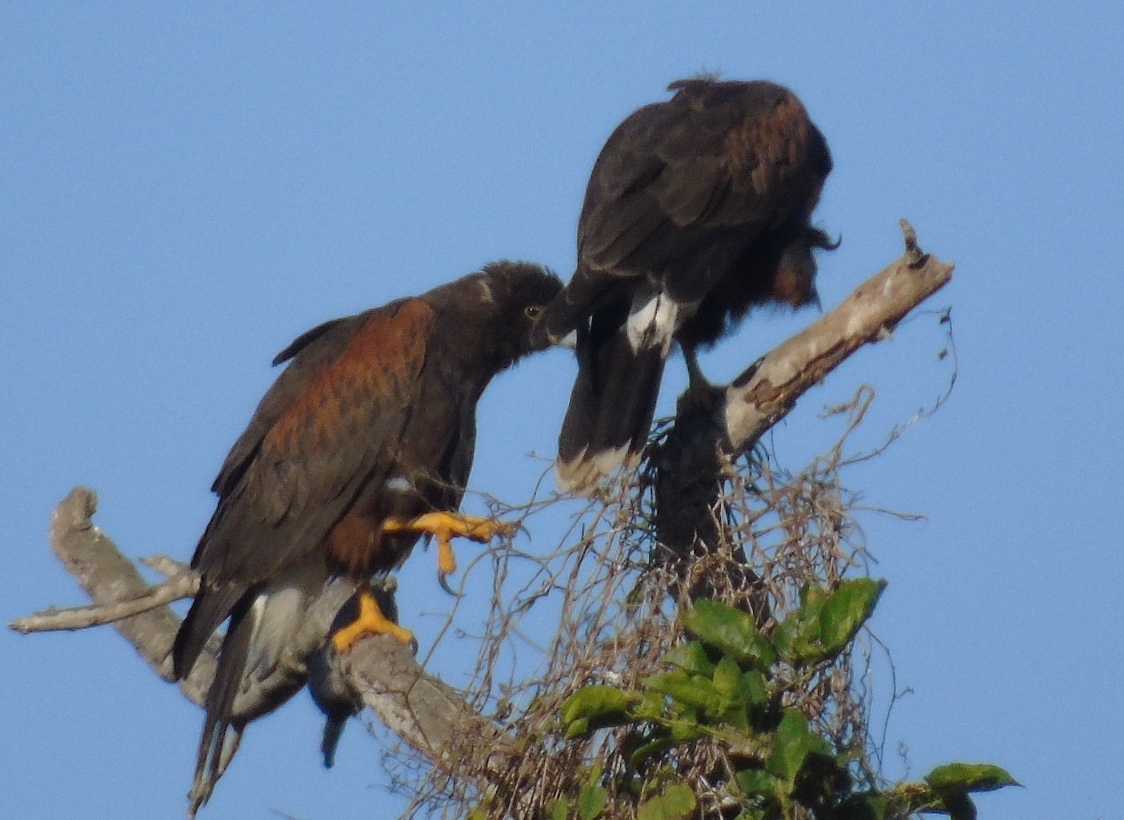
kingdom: Animalia
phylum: Chordata
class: Aves
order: Accipitriformes
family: Accipitridae
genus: Parabuteo
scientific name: Parabuteo unicinctus
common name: Harris's hawk
